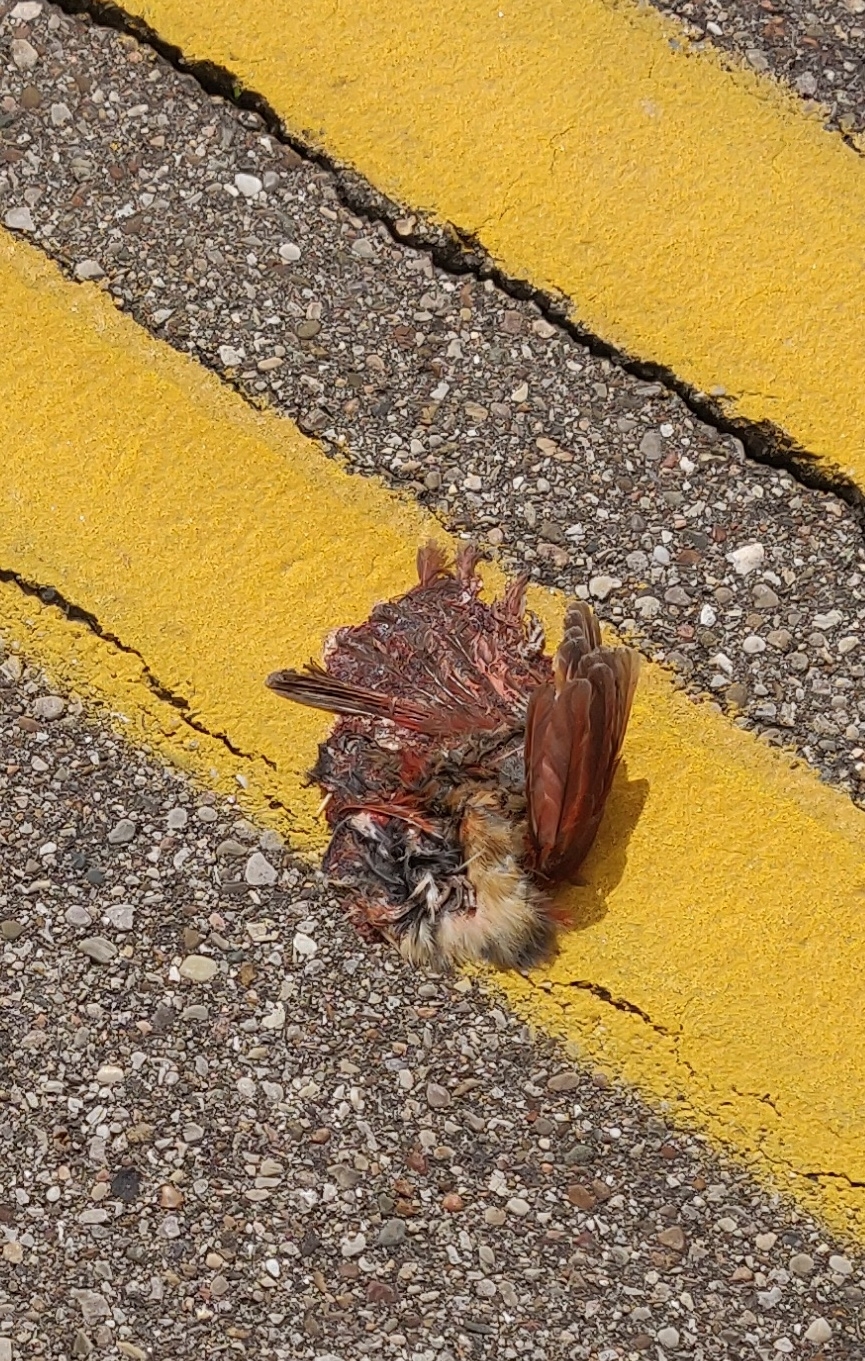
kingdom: Animalia
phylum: Chordata
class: Aves
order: Passeriformes
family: Cardinalidae
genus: Cardinalis
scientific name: Cardinalis cardinalis
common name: Northern cardinal
